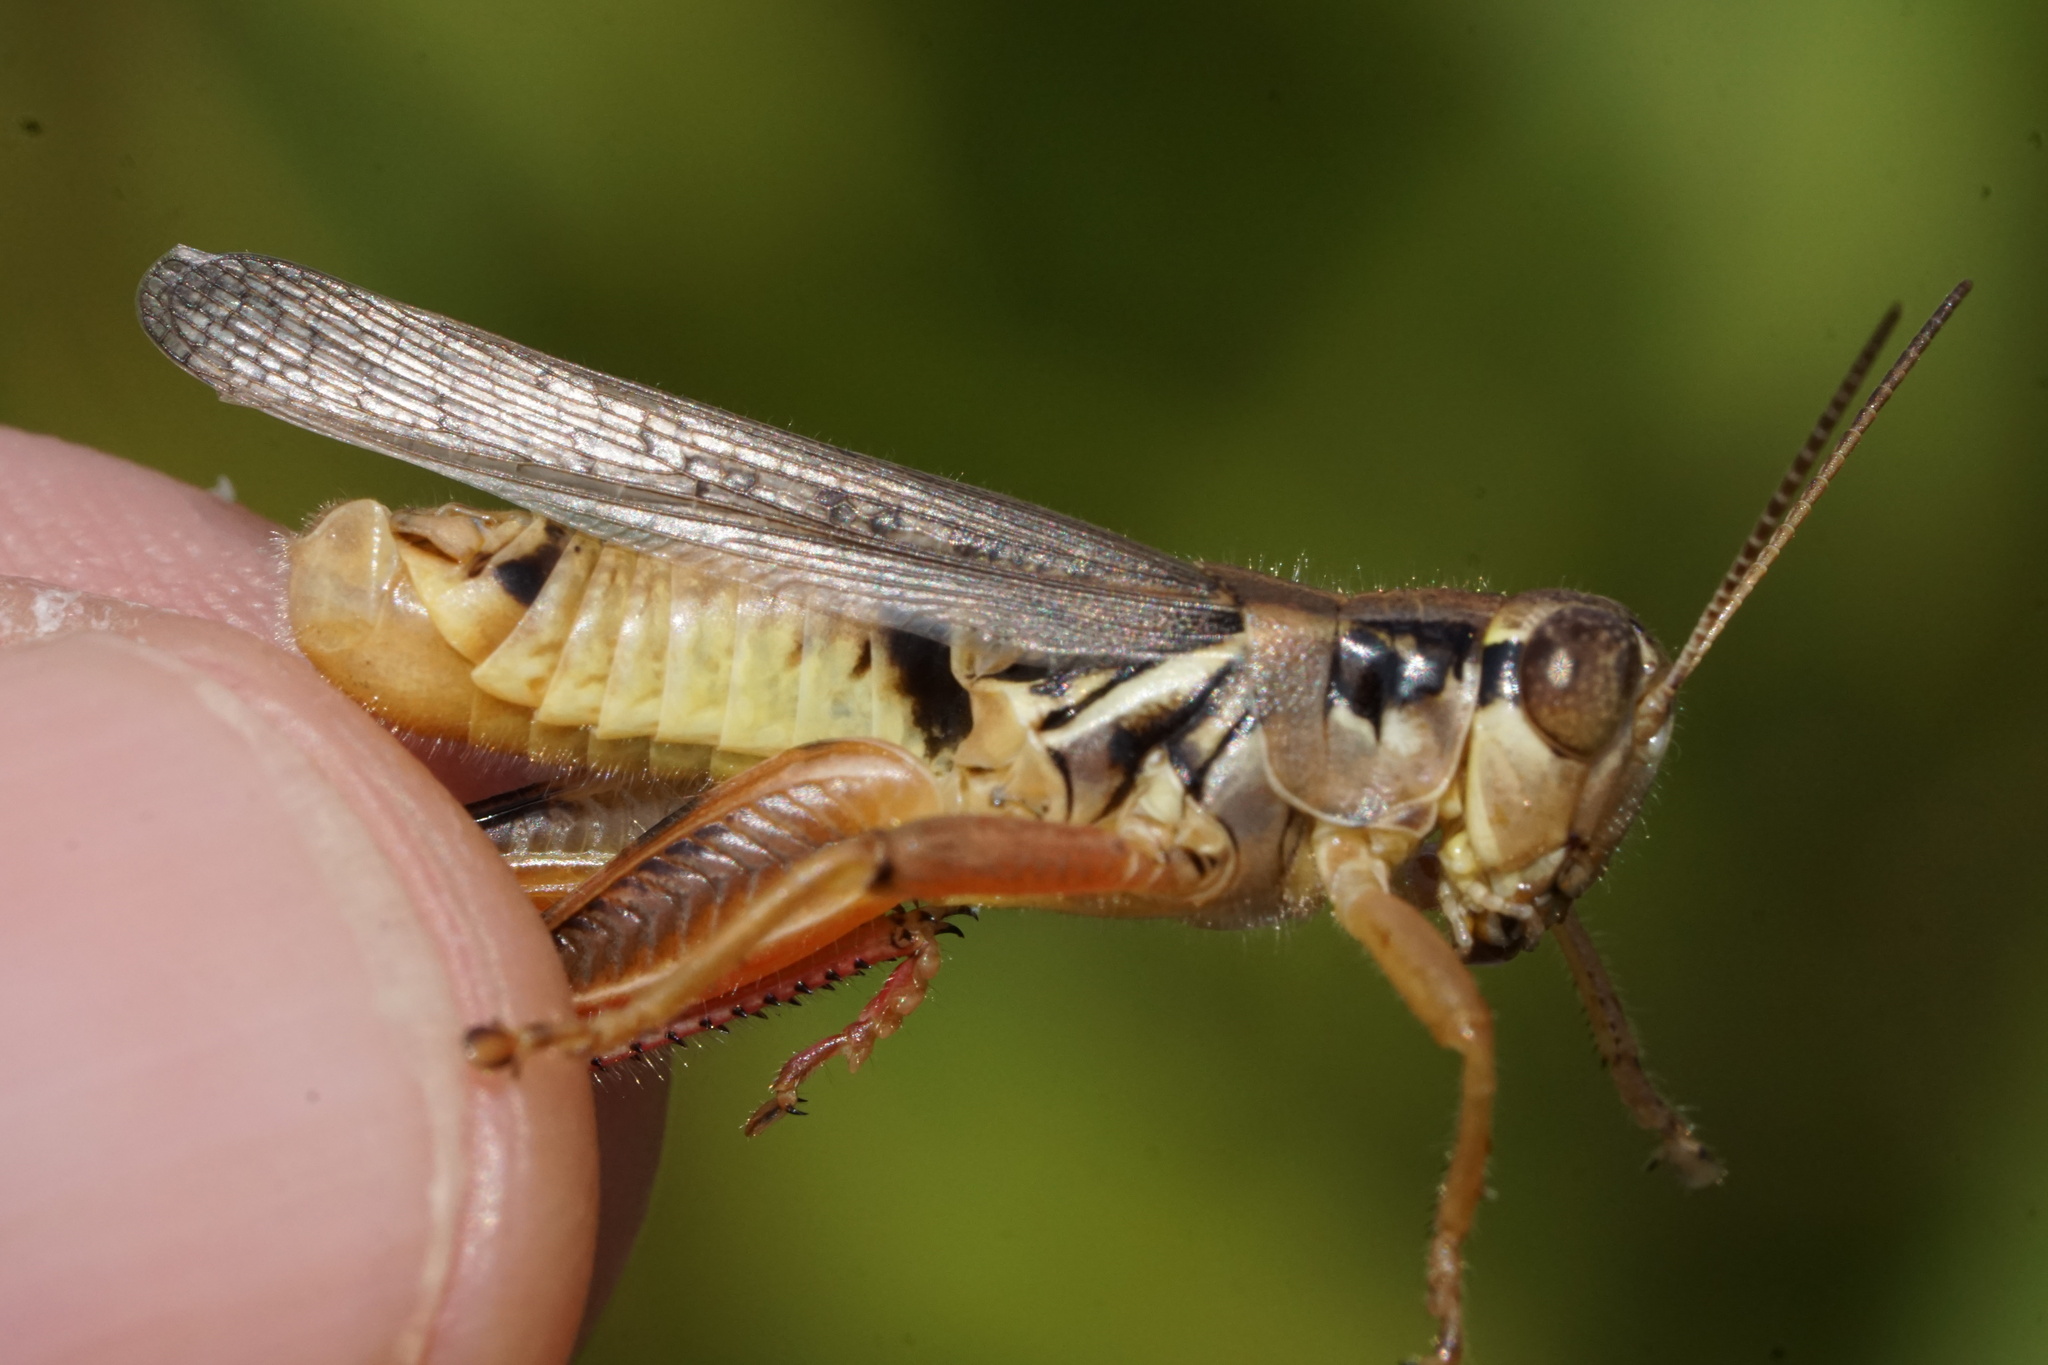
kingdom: Animalia
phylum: Arthropoda
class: Insecta
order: Orthoptera
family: Acrididae
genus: Melanoplus
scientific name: Melanoplus femurrubrum
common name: Red-legged grasshopper
